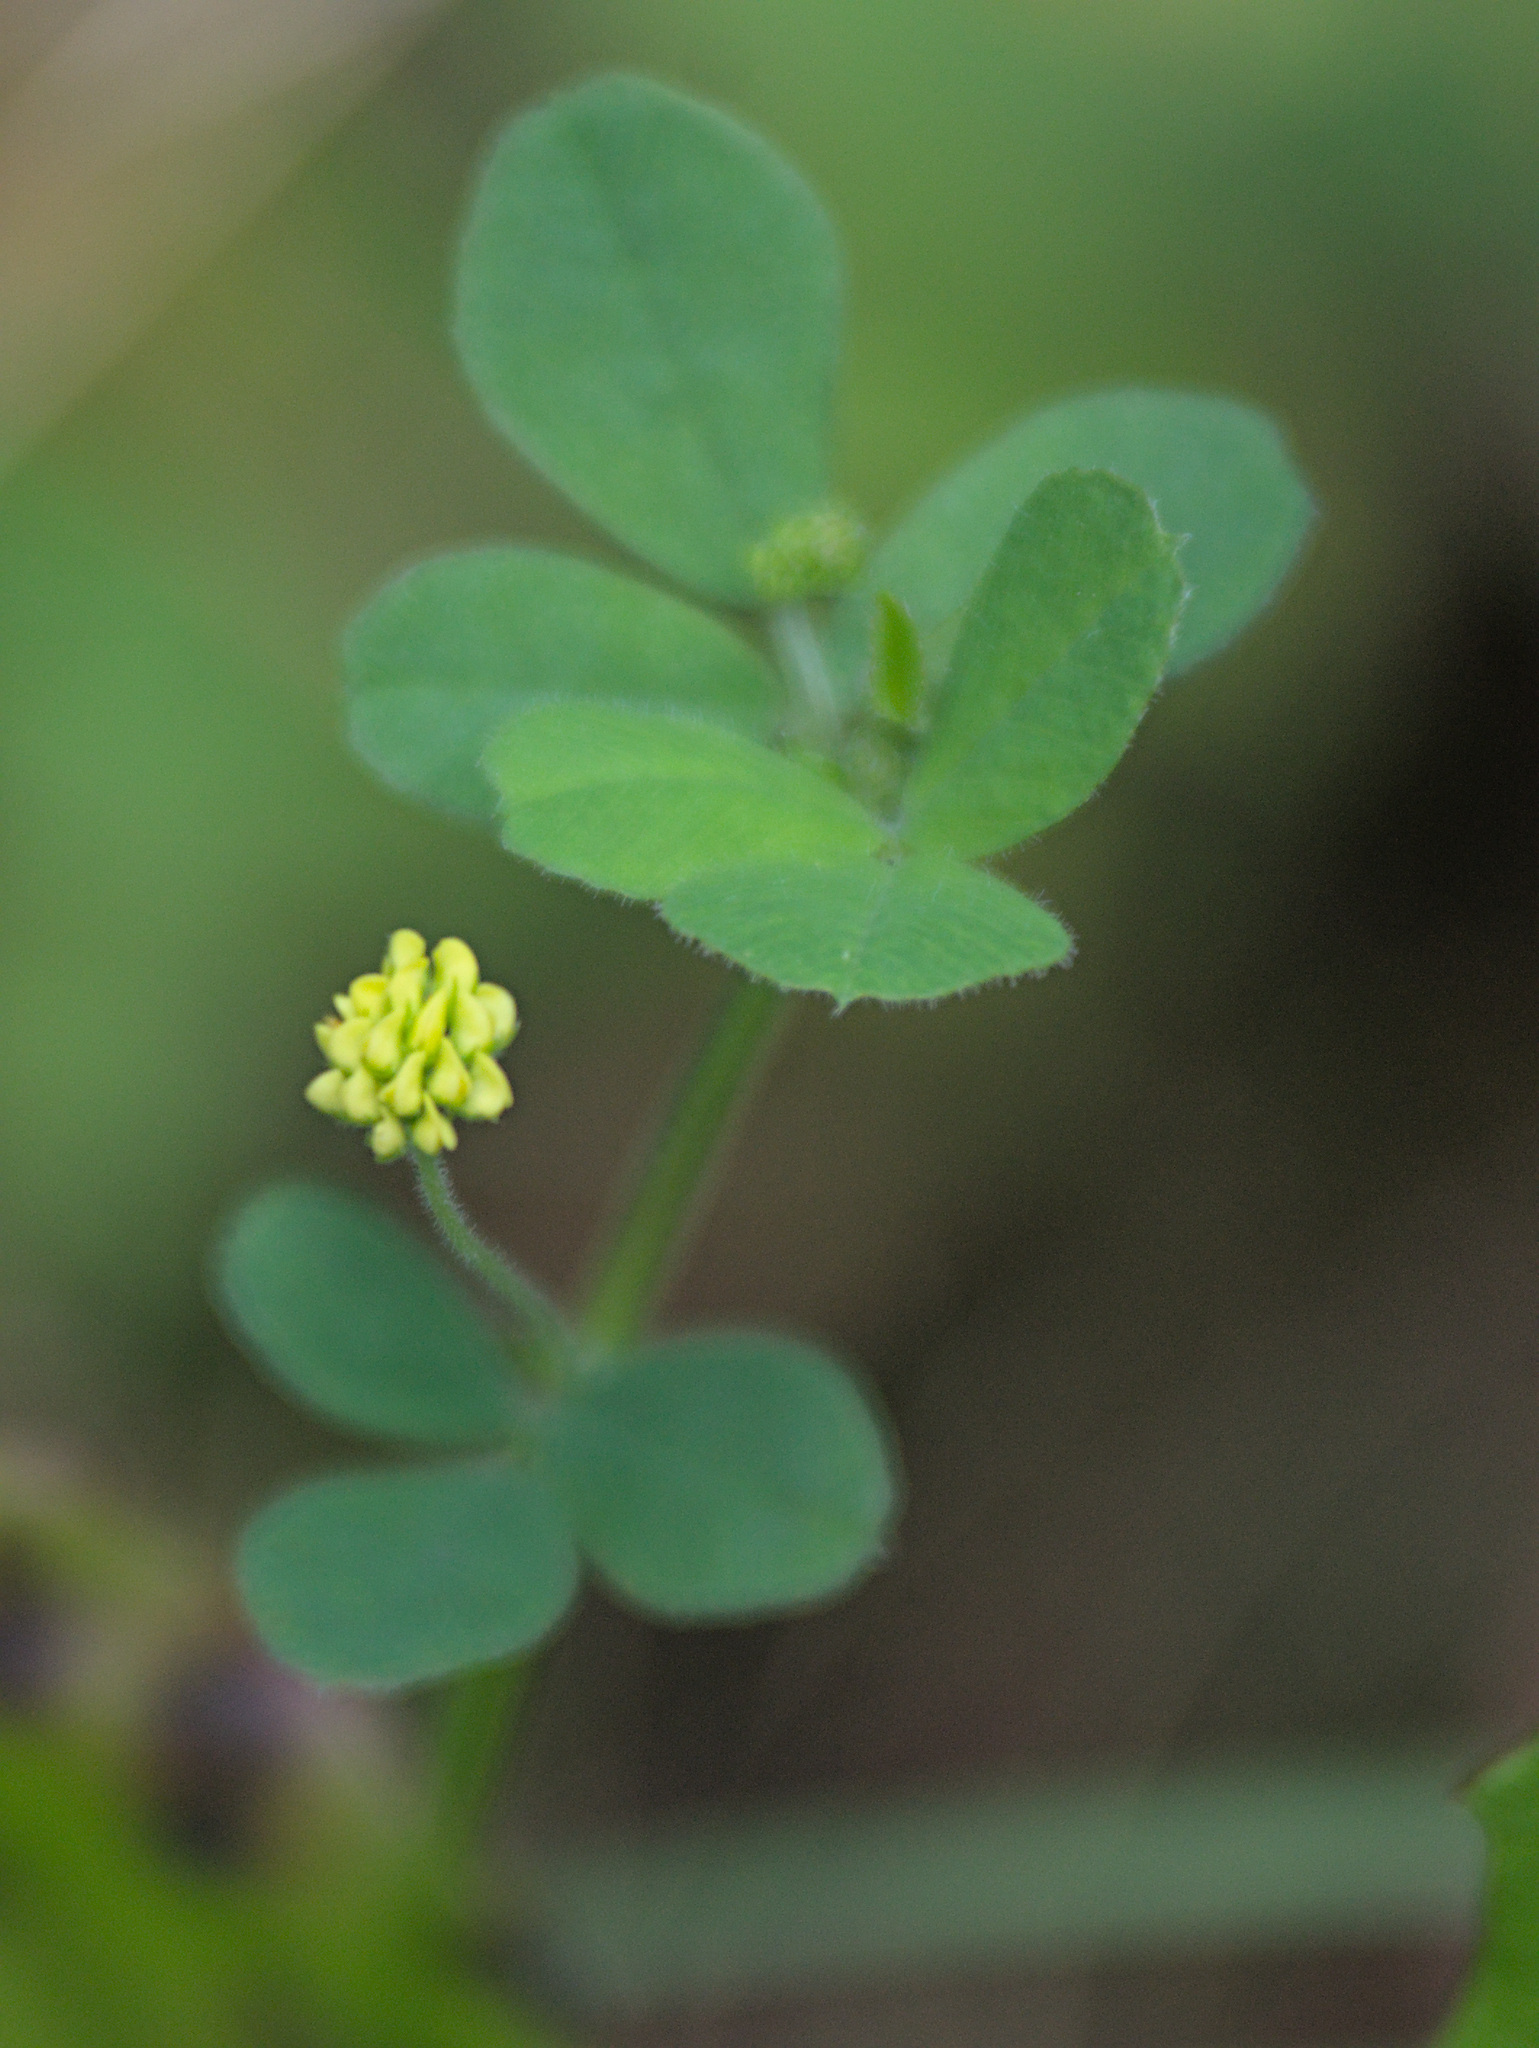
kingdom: Plantae
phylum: Tracheophyta
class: Magnoliopsida
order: Fabales
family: Fabaceae
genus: Medicago
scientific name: Medicago lupulina
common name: Black medick
